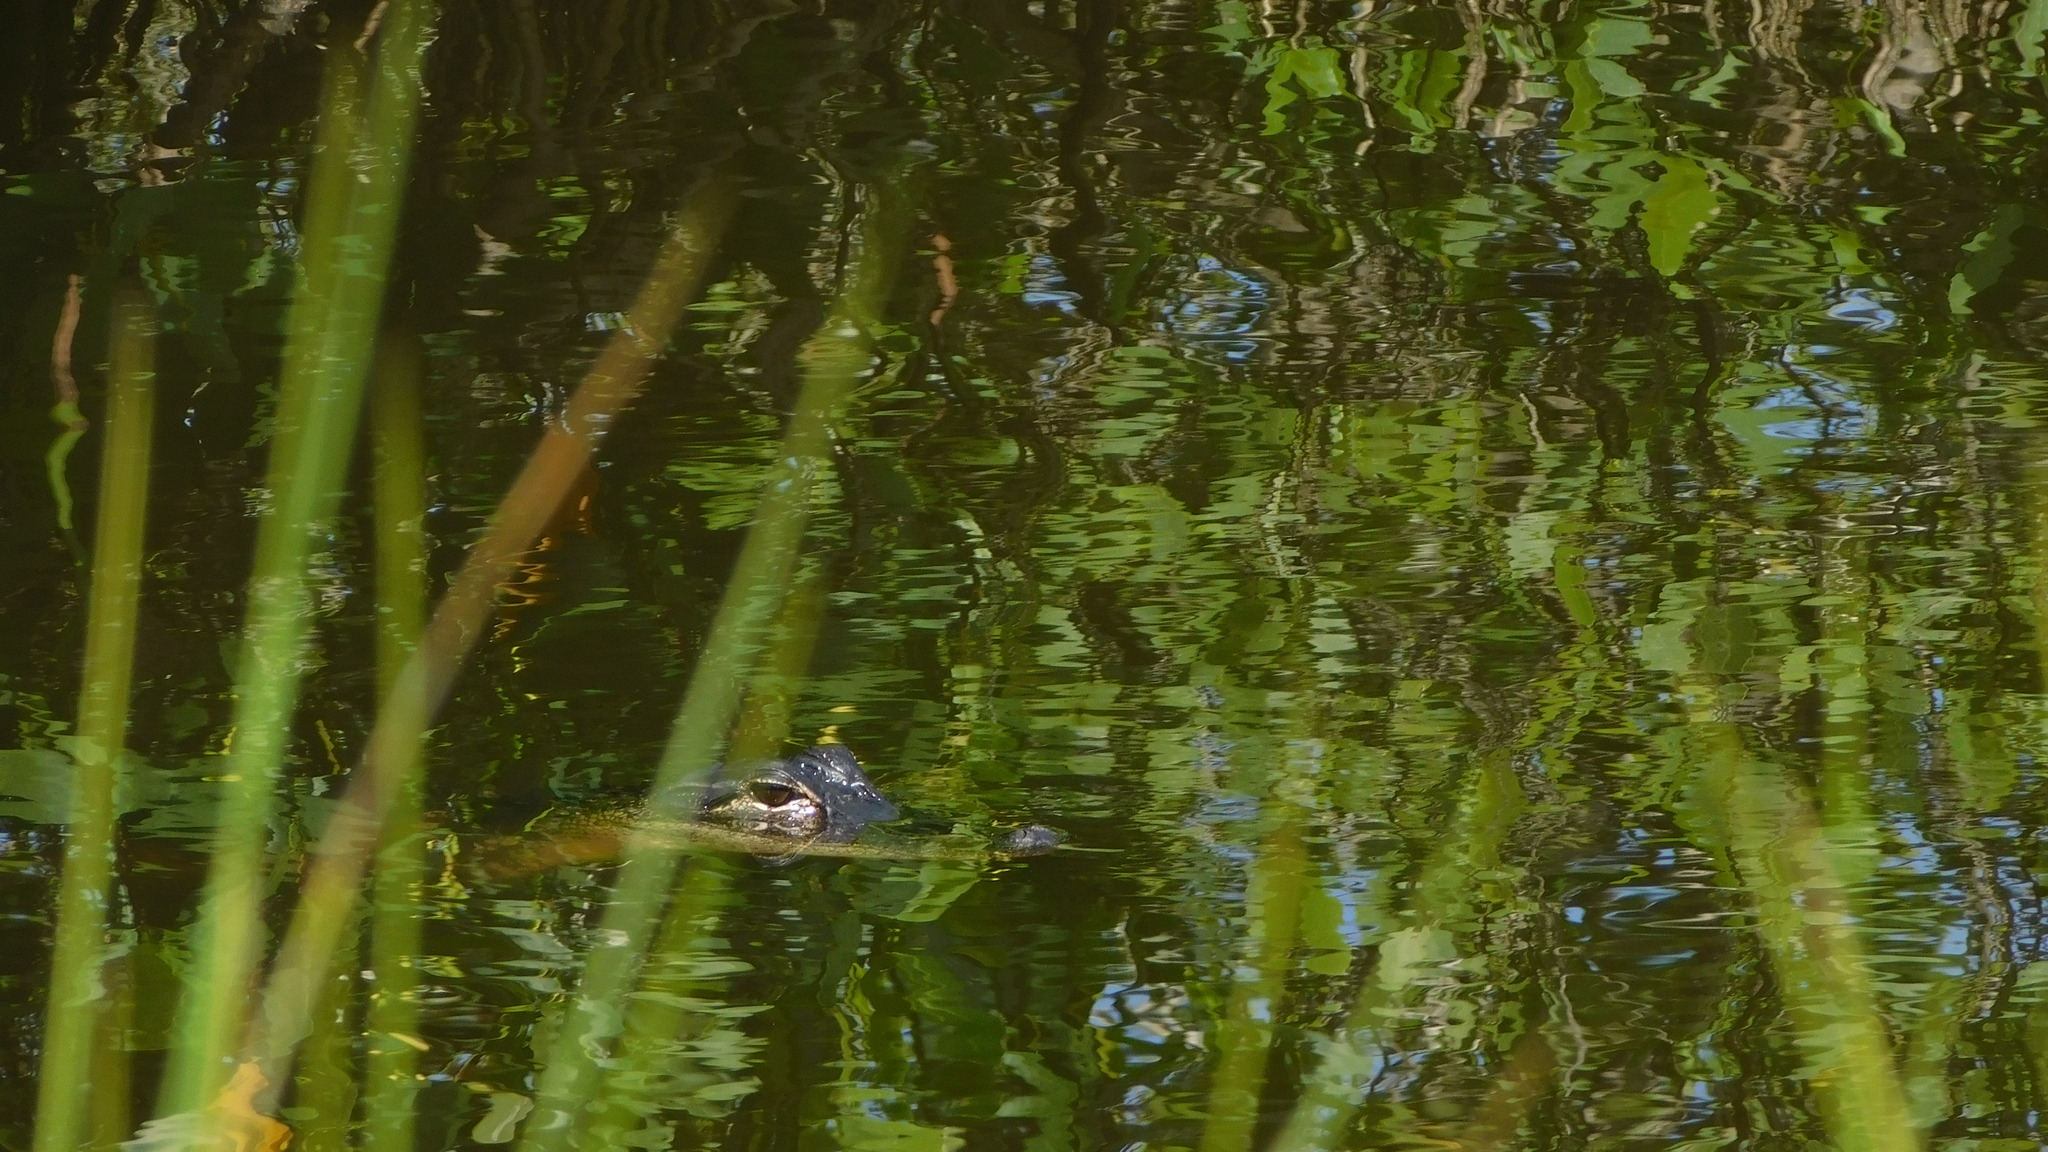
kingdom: Animalia
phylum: Chordata
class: Crocodylia
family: Alligatoridae
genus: Alligator
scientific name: Alligator mississippiensis
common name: American alligator
